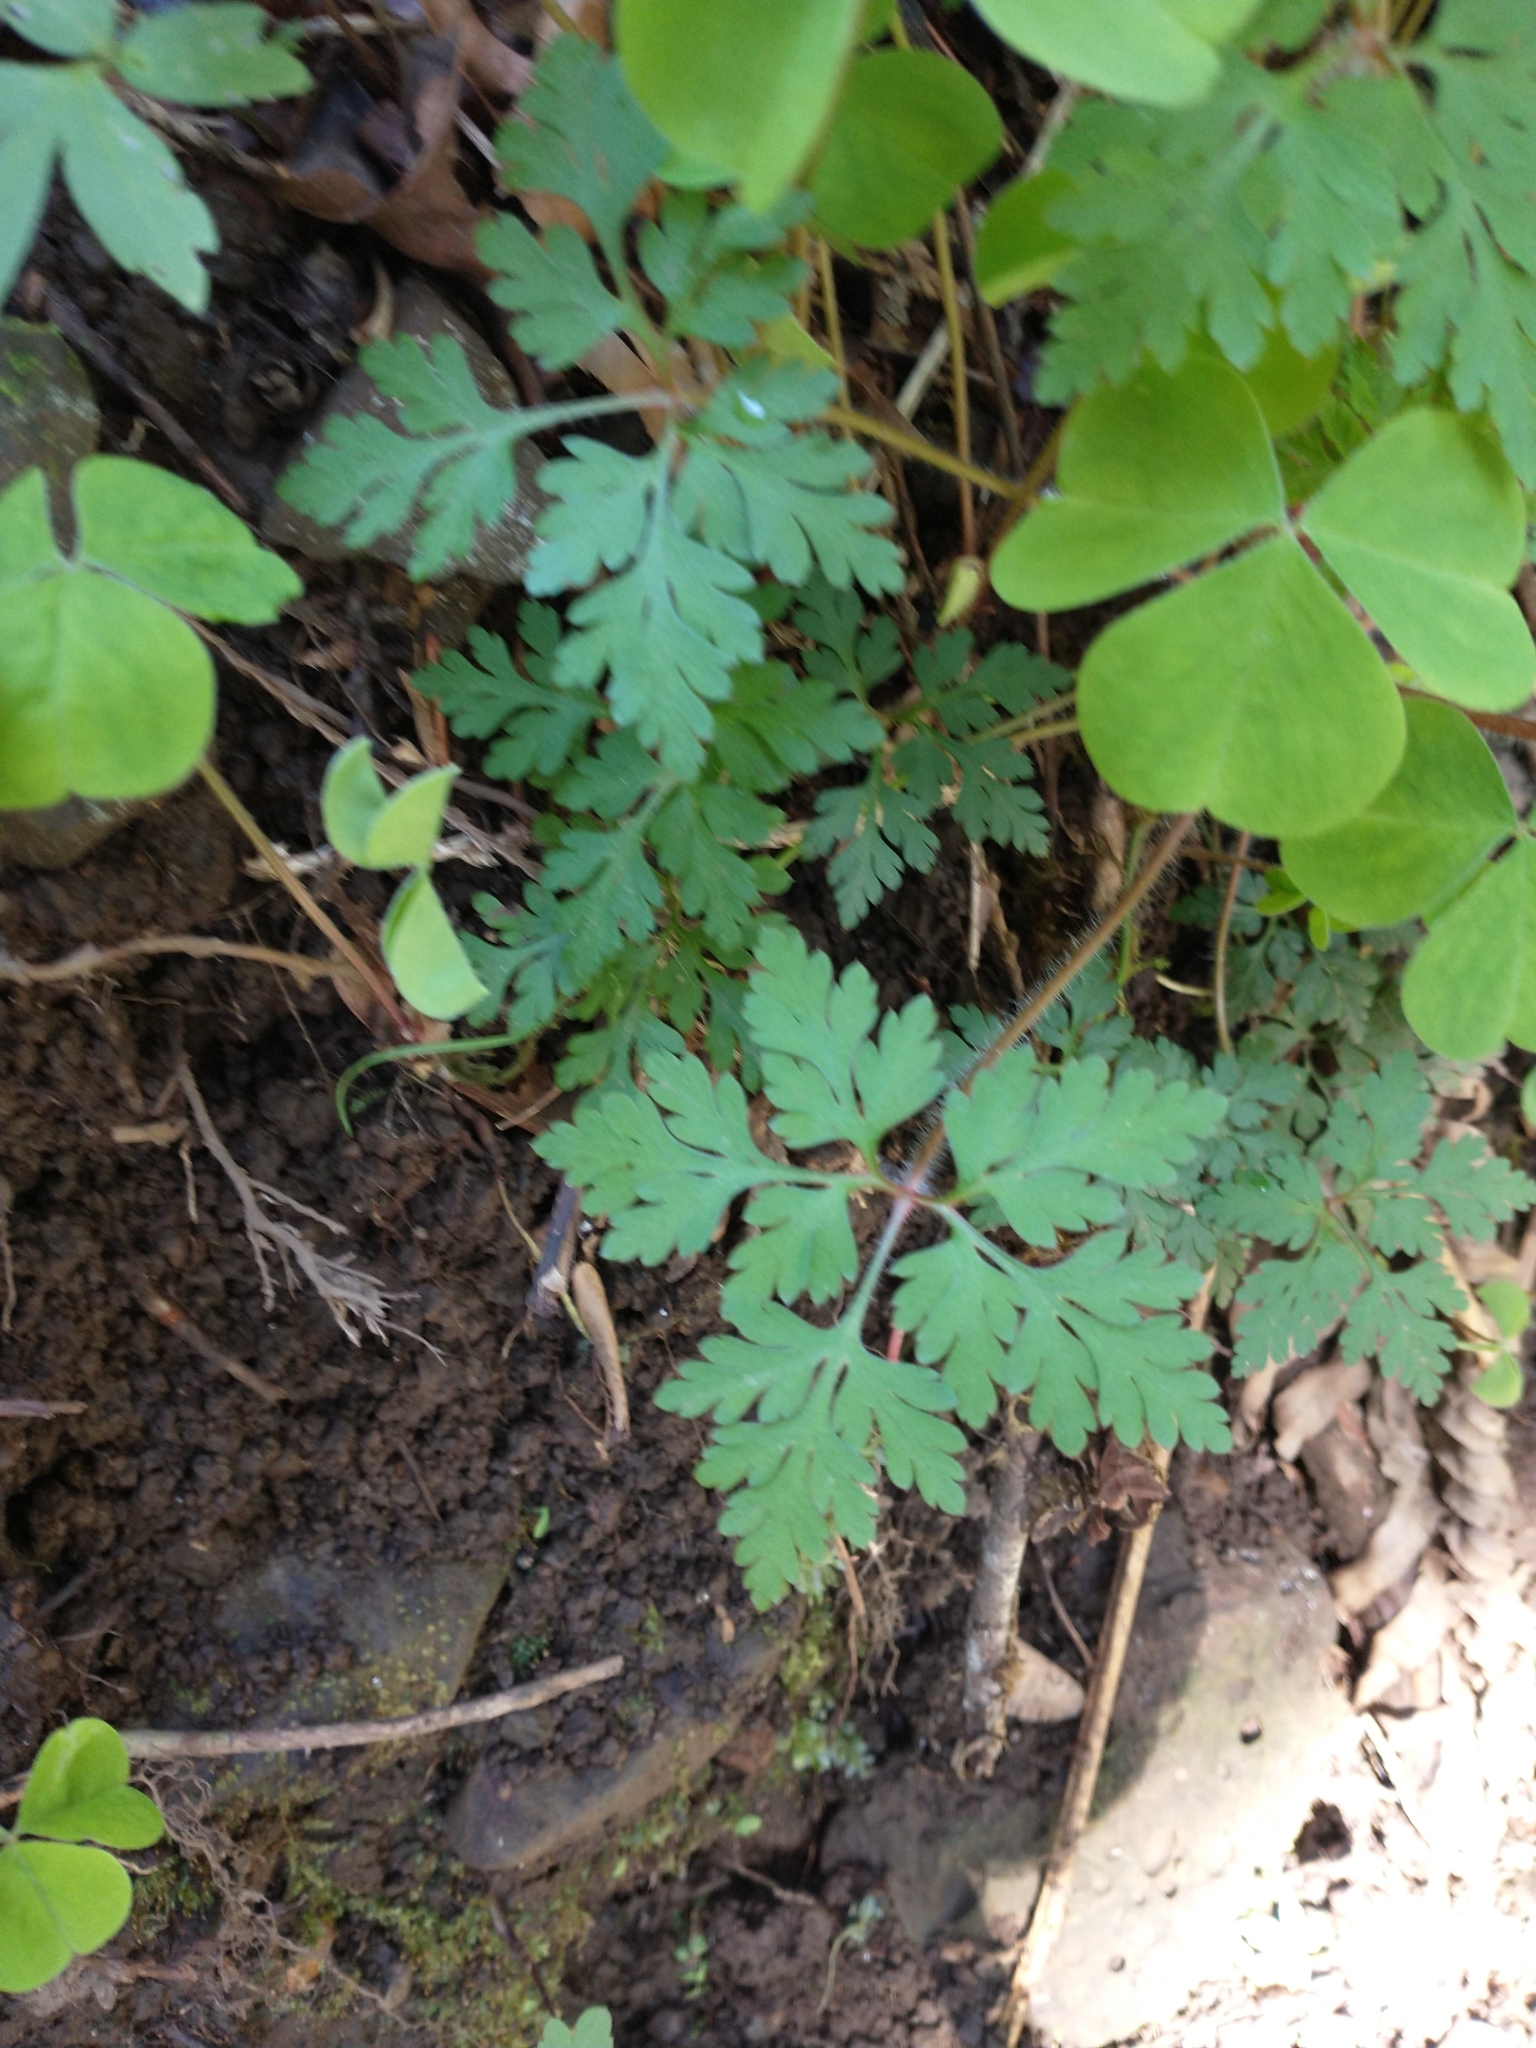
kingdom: Plantae
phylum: Tracheophyta
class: Magnoliopsida
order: Geraniales
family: Geraniaceae
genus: Geranium
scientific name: Geranium robertianum
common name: Herb-robert
